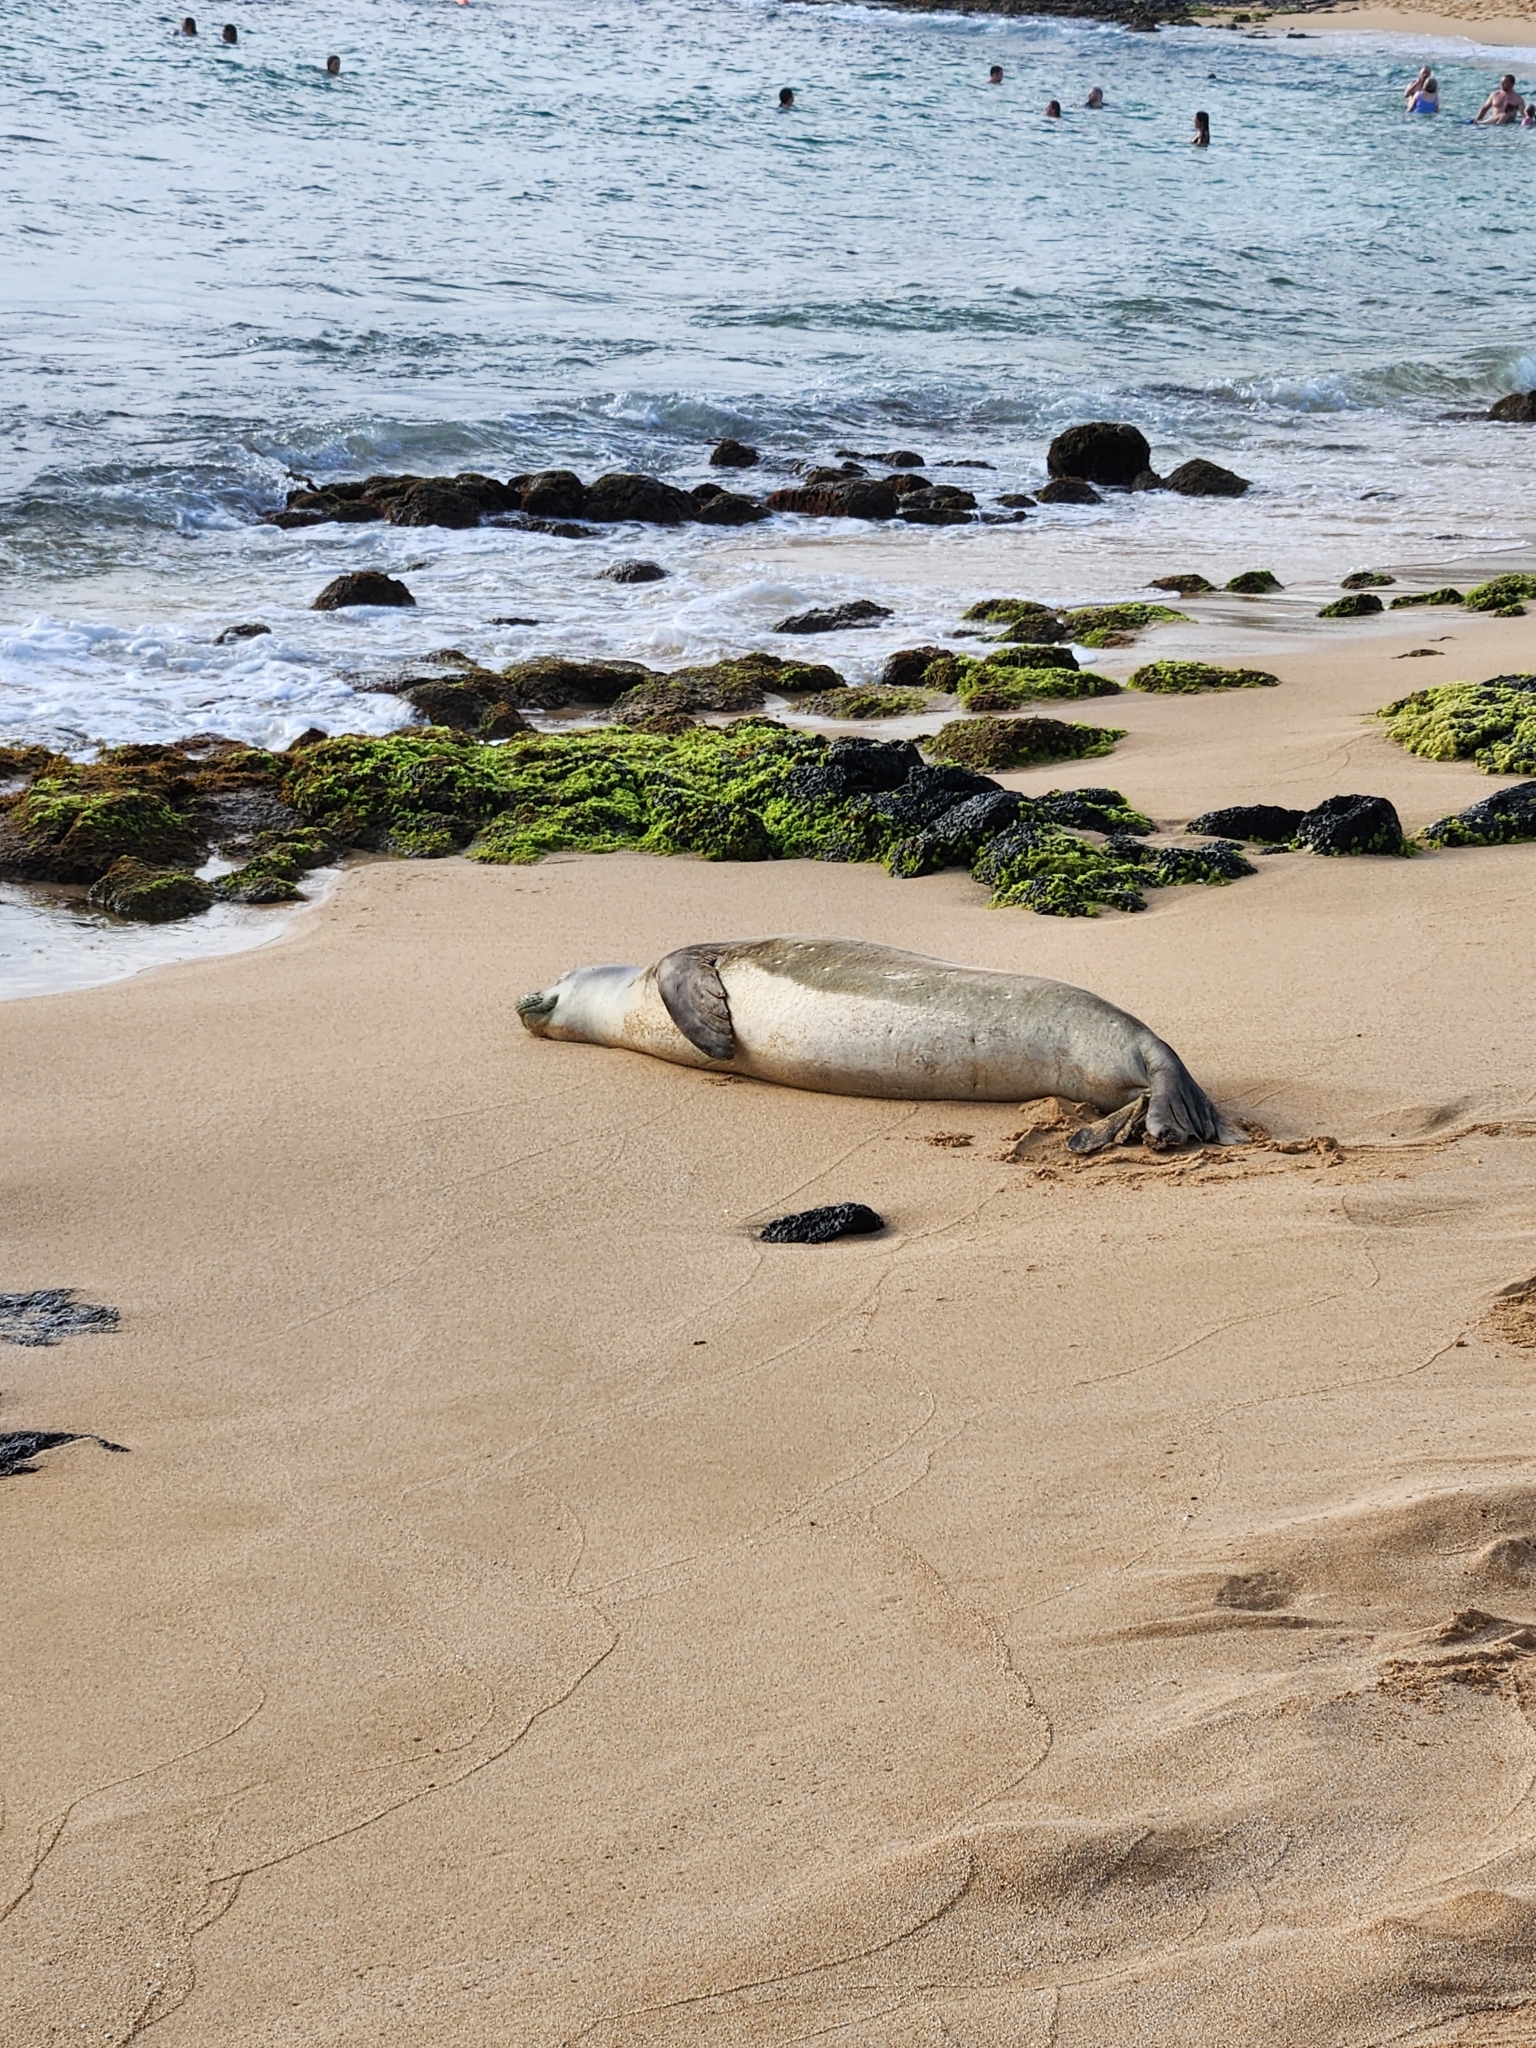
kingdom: Animalia
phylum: Chordata
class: Mammalia
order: Carnivora
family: Phocidae
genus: Neomonachus
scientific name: Neomonachus schauinslandi
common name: Hawaiian monk seal
